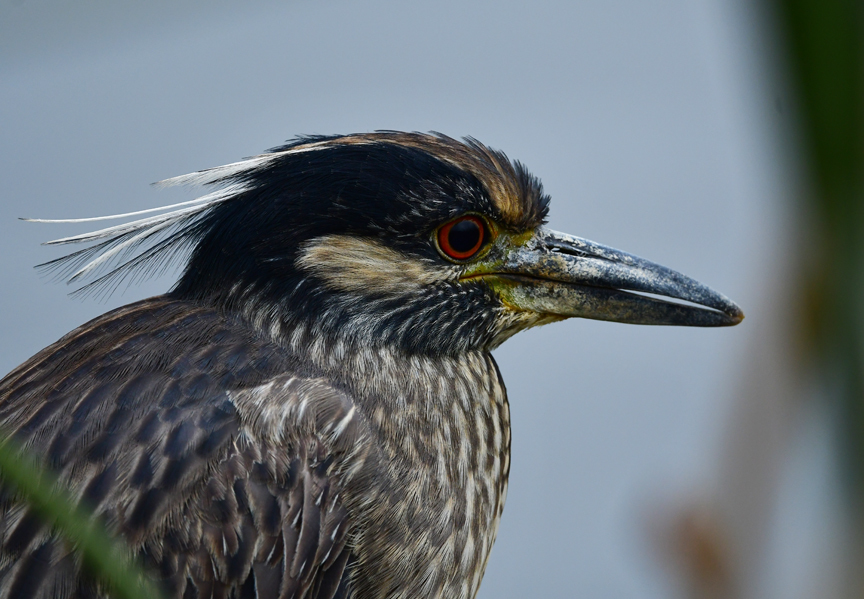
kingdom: Animalia
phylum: Chordata
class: Aves
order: Pelecaniformes
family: Ardeidae
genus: Nyctanassa
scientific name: Nyctanassa violacea
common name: Yellow-crowned night heron
